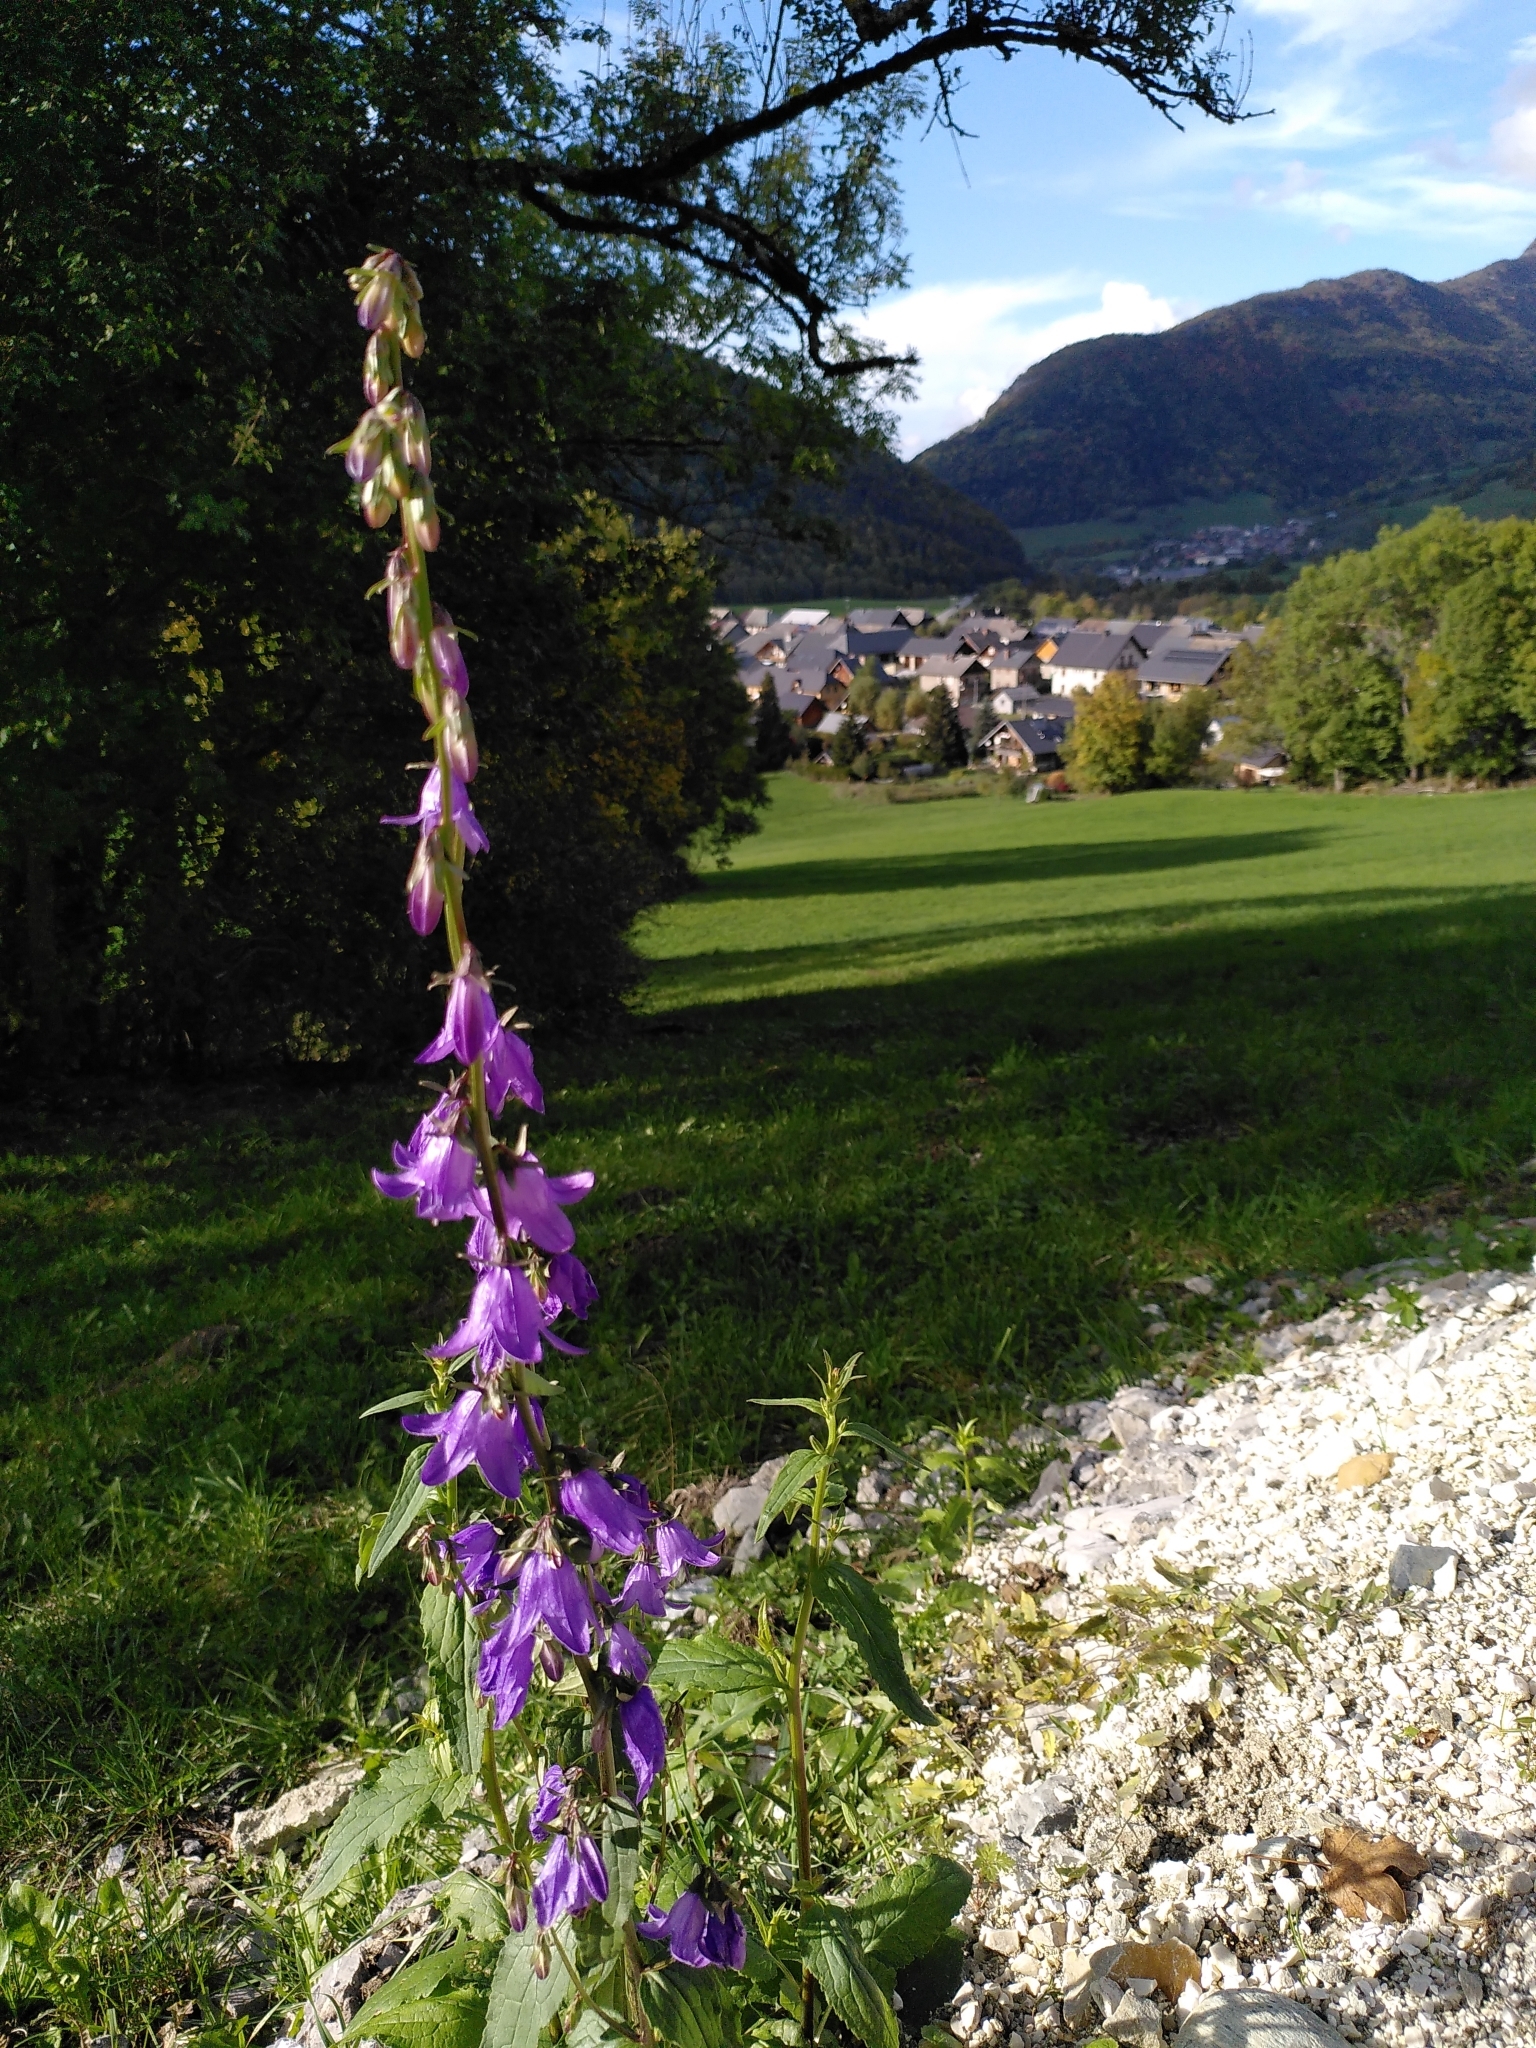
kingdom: Plantae
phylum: Tracheophyta
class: Magnoliopsida
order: Asterales
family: Campanulaceae
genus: Campanula
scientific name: Campanula rapunculoides
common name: Creeping bellflower
